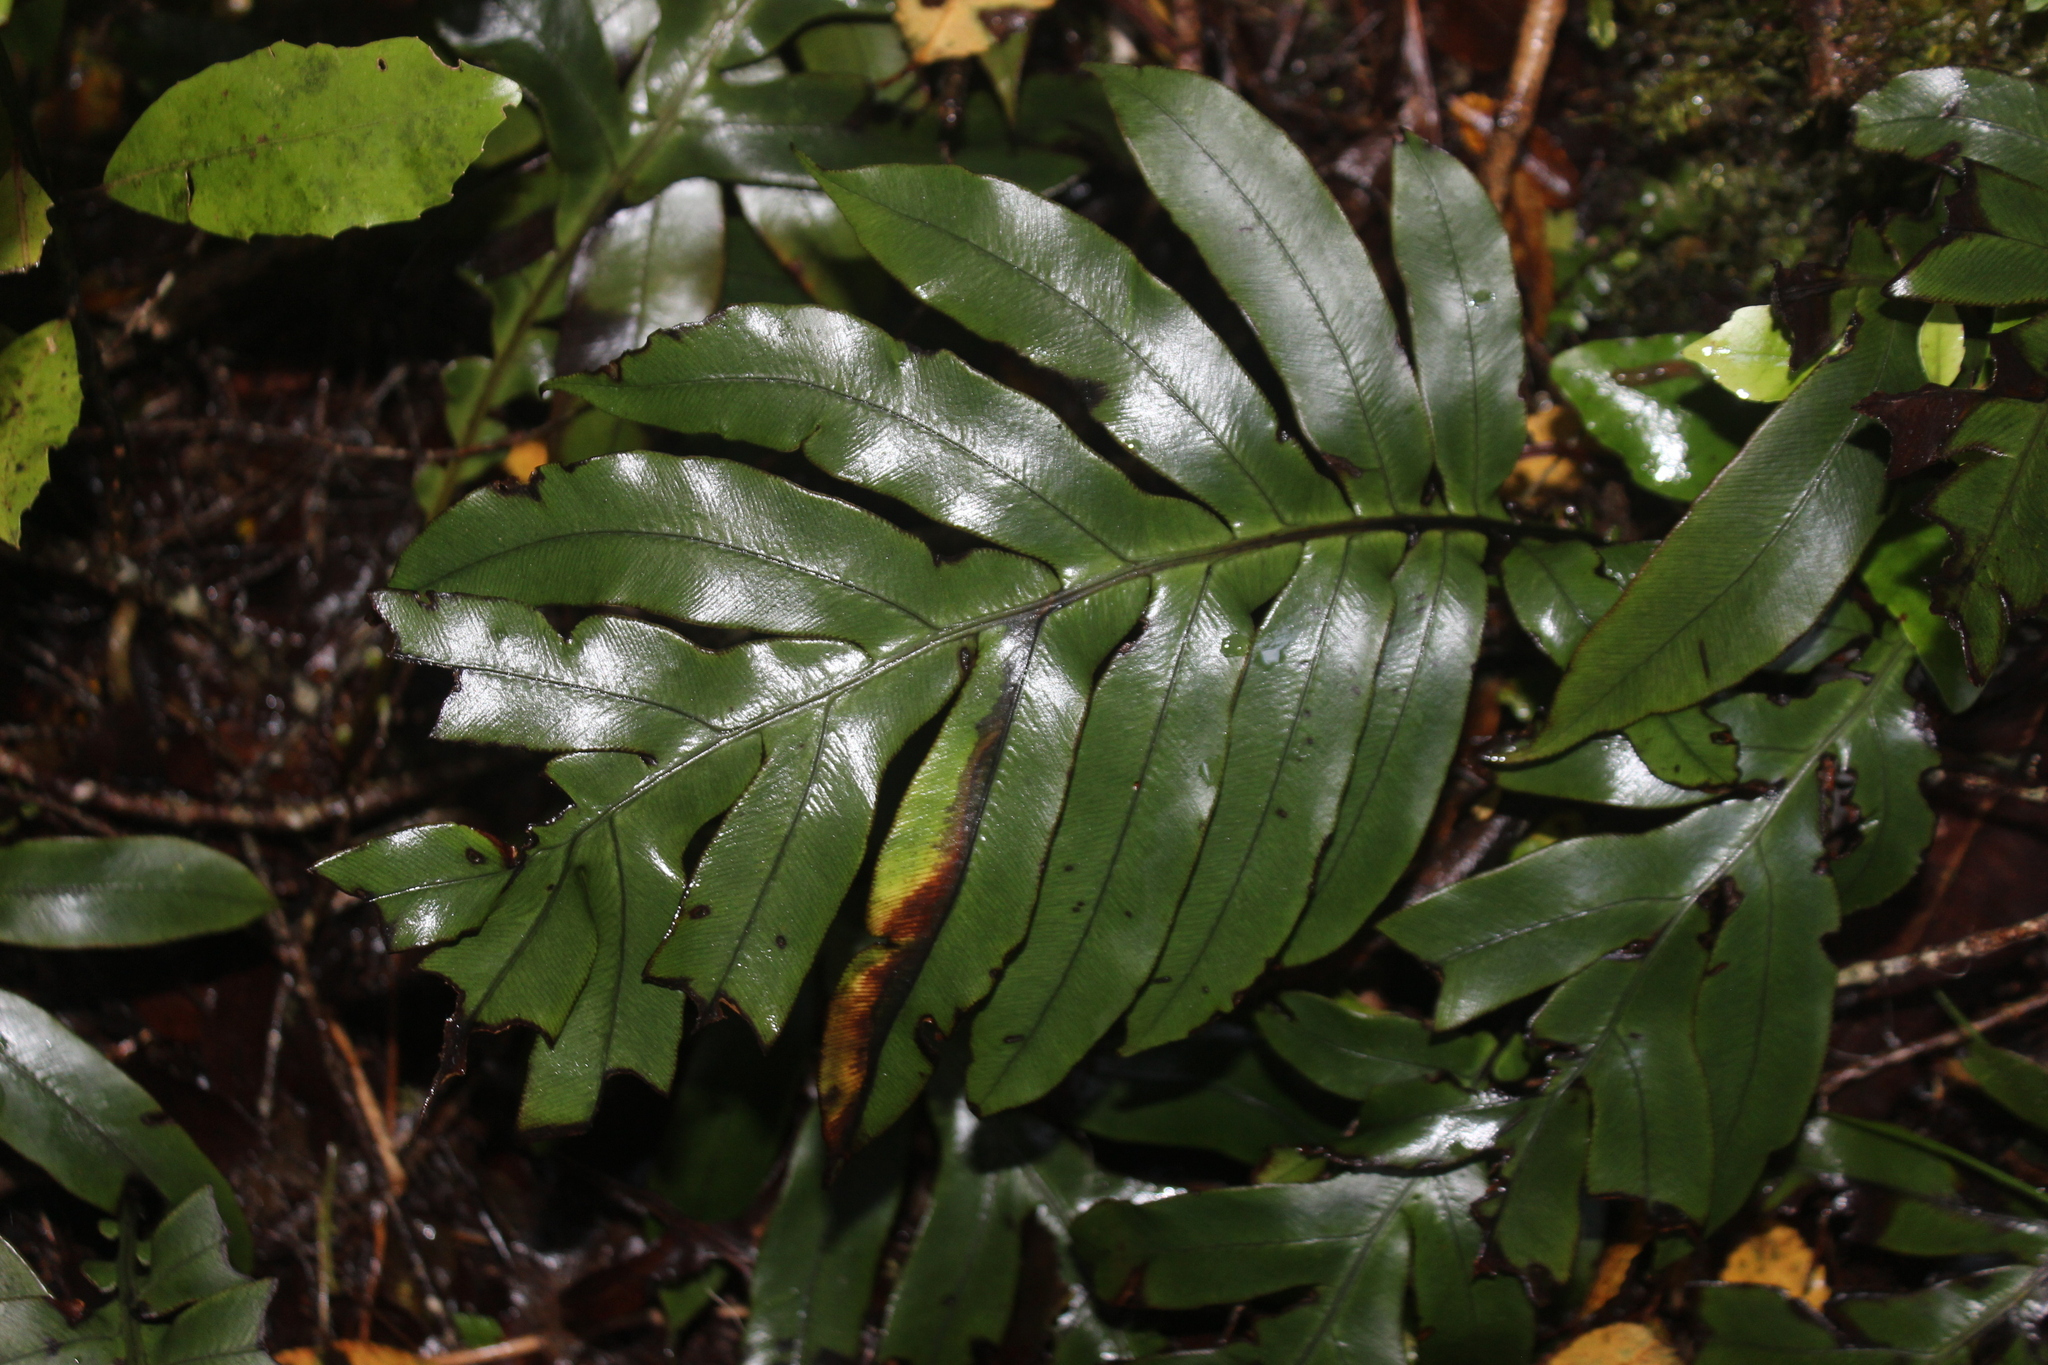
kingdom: Plantae
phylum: Tracheophyta
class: Polypodiopsida
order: Polypodiales
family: Blechnaceae
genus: Austroblechnum
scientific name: Austroblechnum colensoi
